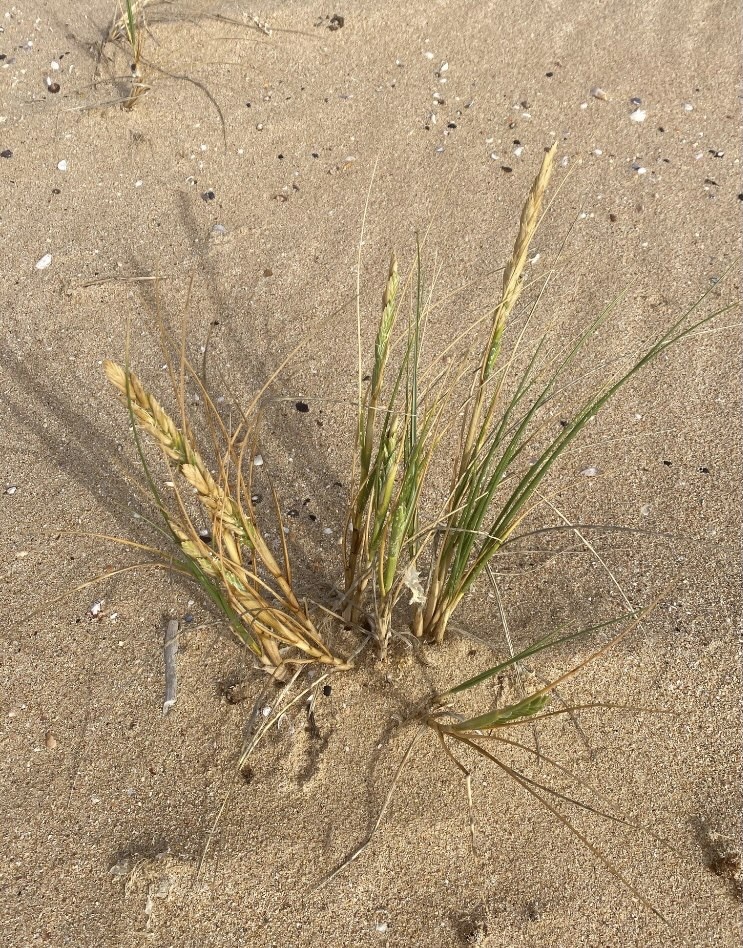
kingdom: Plantae
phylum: Tracheophyta
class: Liliopsida
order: Poales
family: Poaceae
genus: Thinopyrum
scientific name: Thinopyrum distichum
